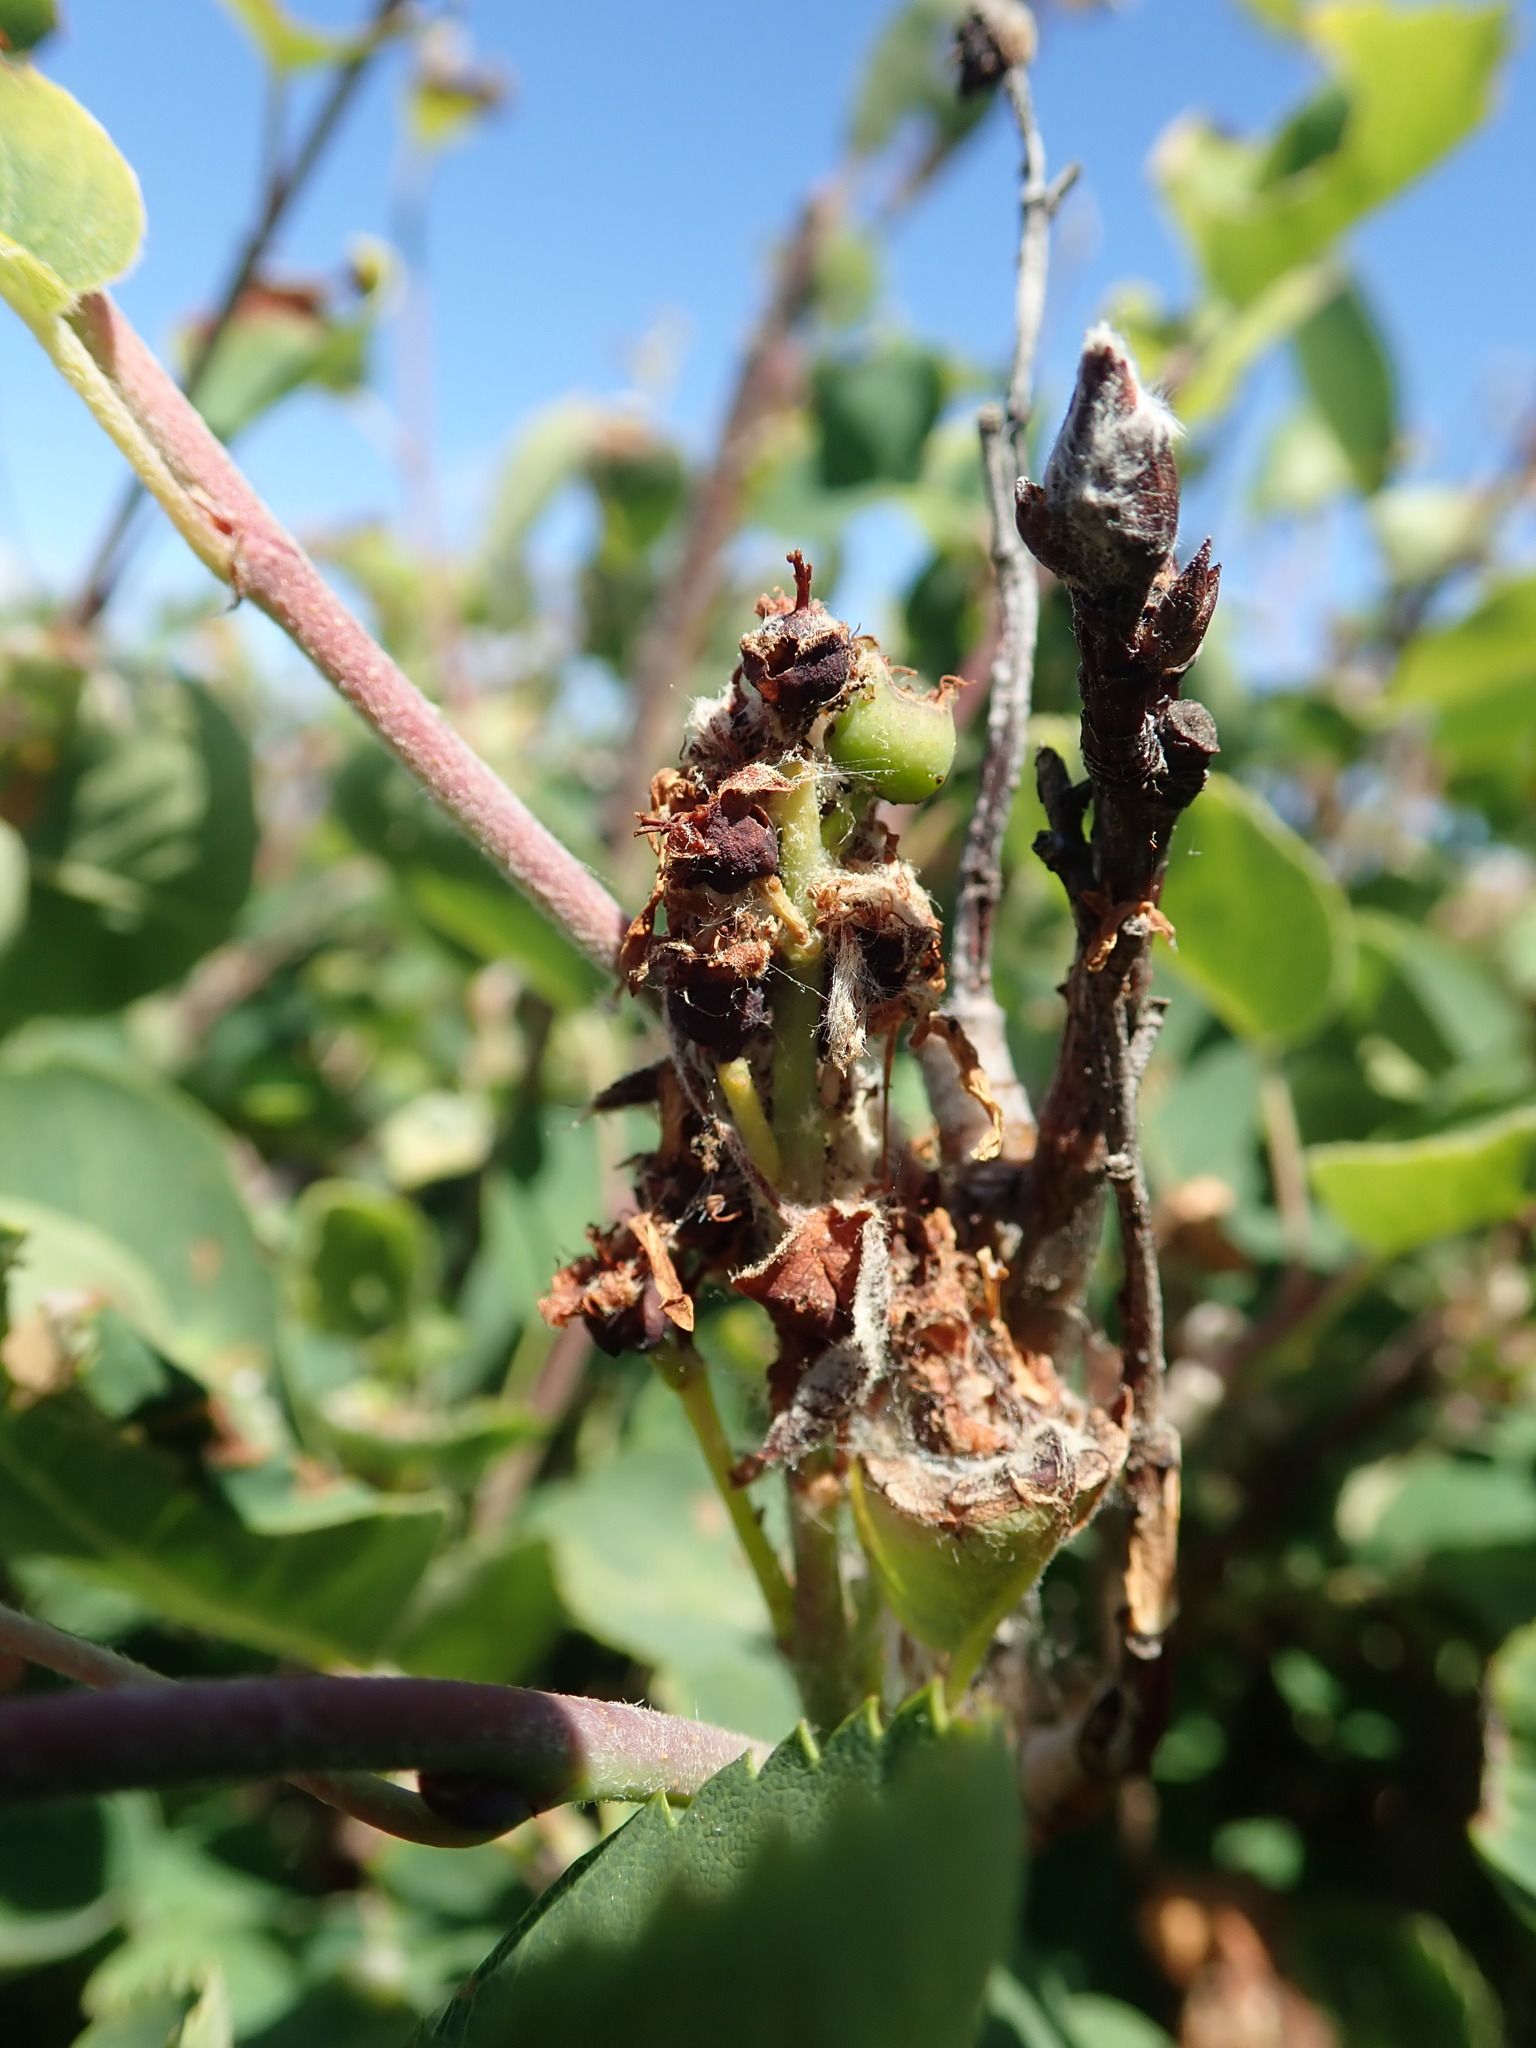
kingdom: Plantae
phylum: Tracheophyta
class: Magnoliopsida
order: Rosales
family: Rosaceae
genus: Amelanchier
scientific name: Amelanchier alnifolia
